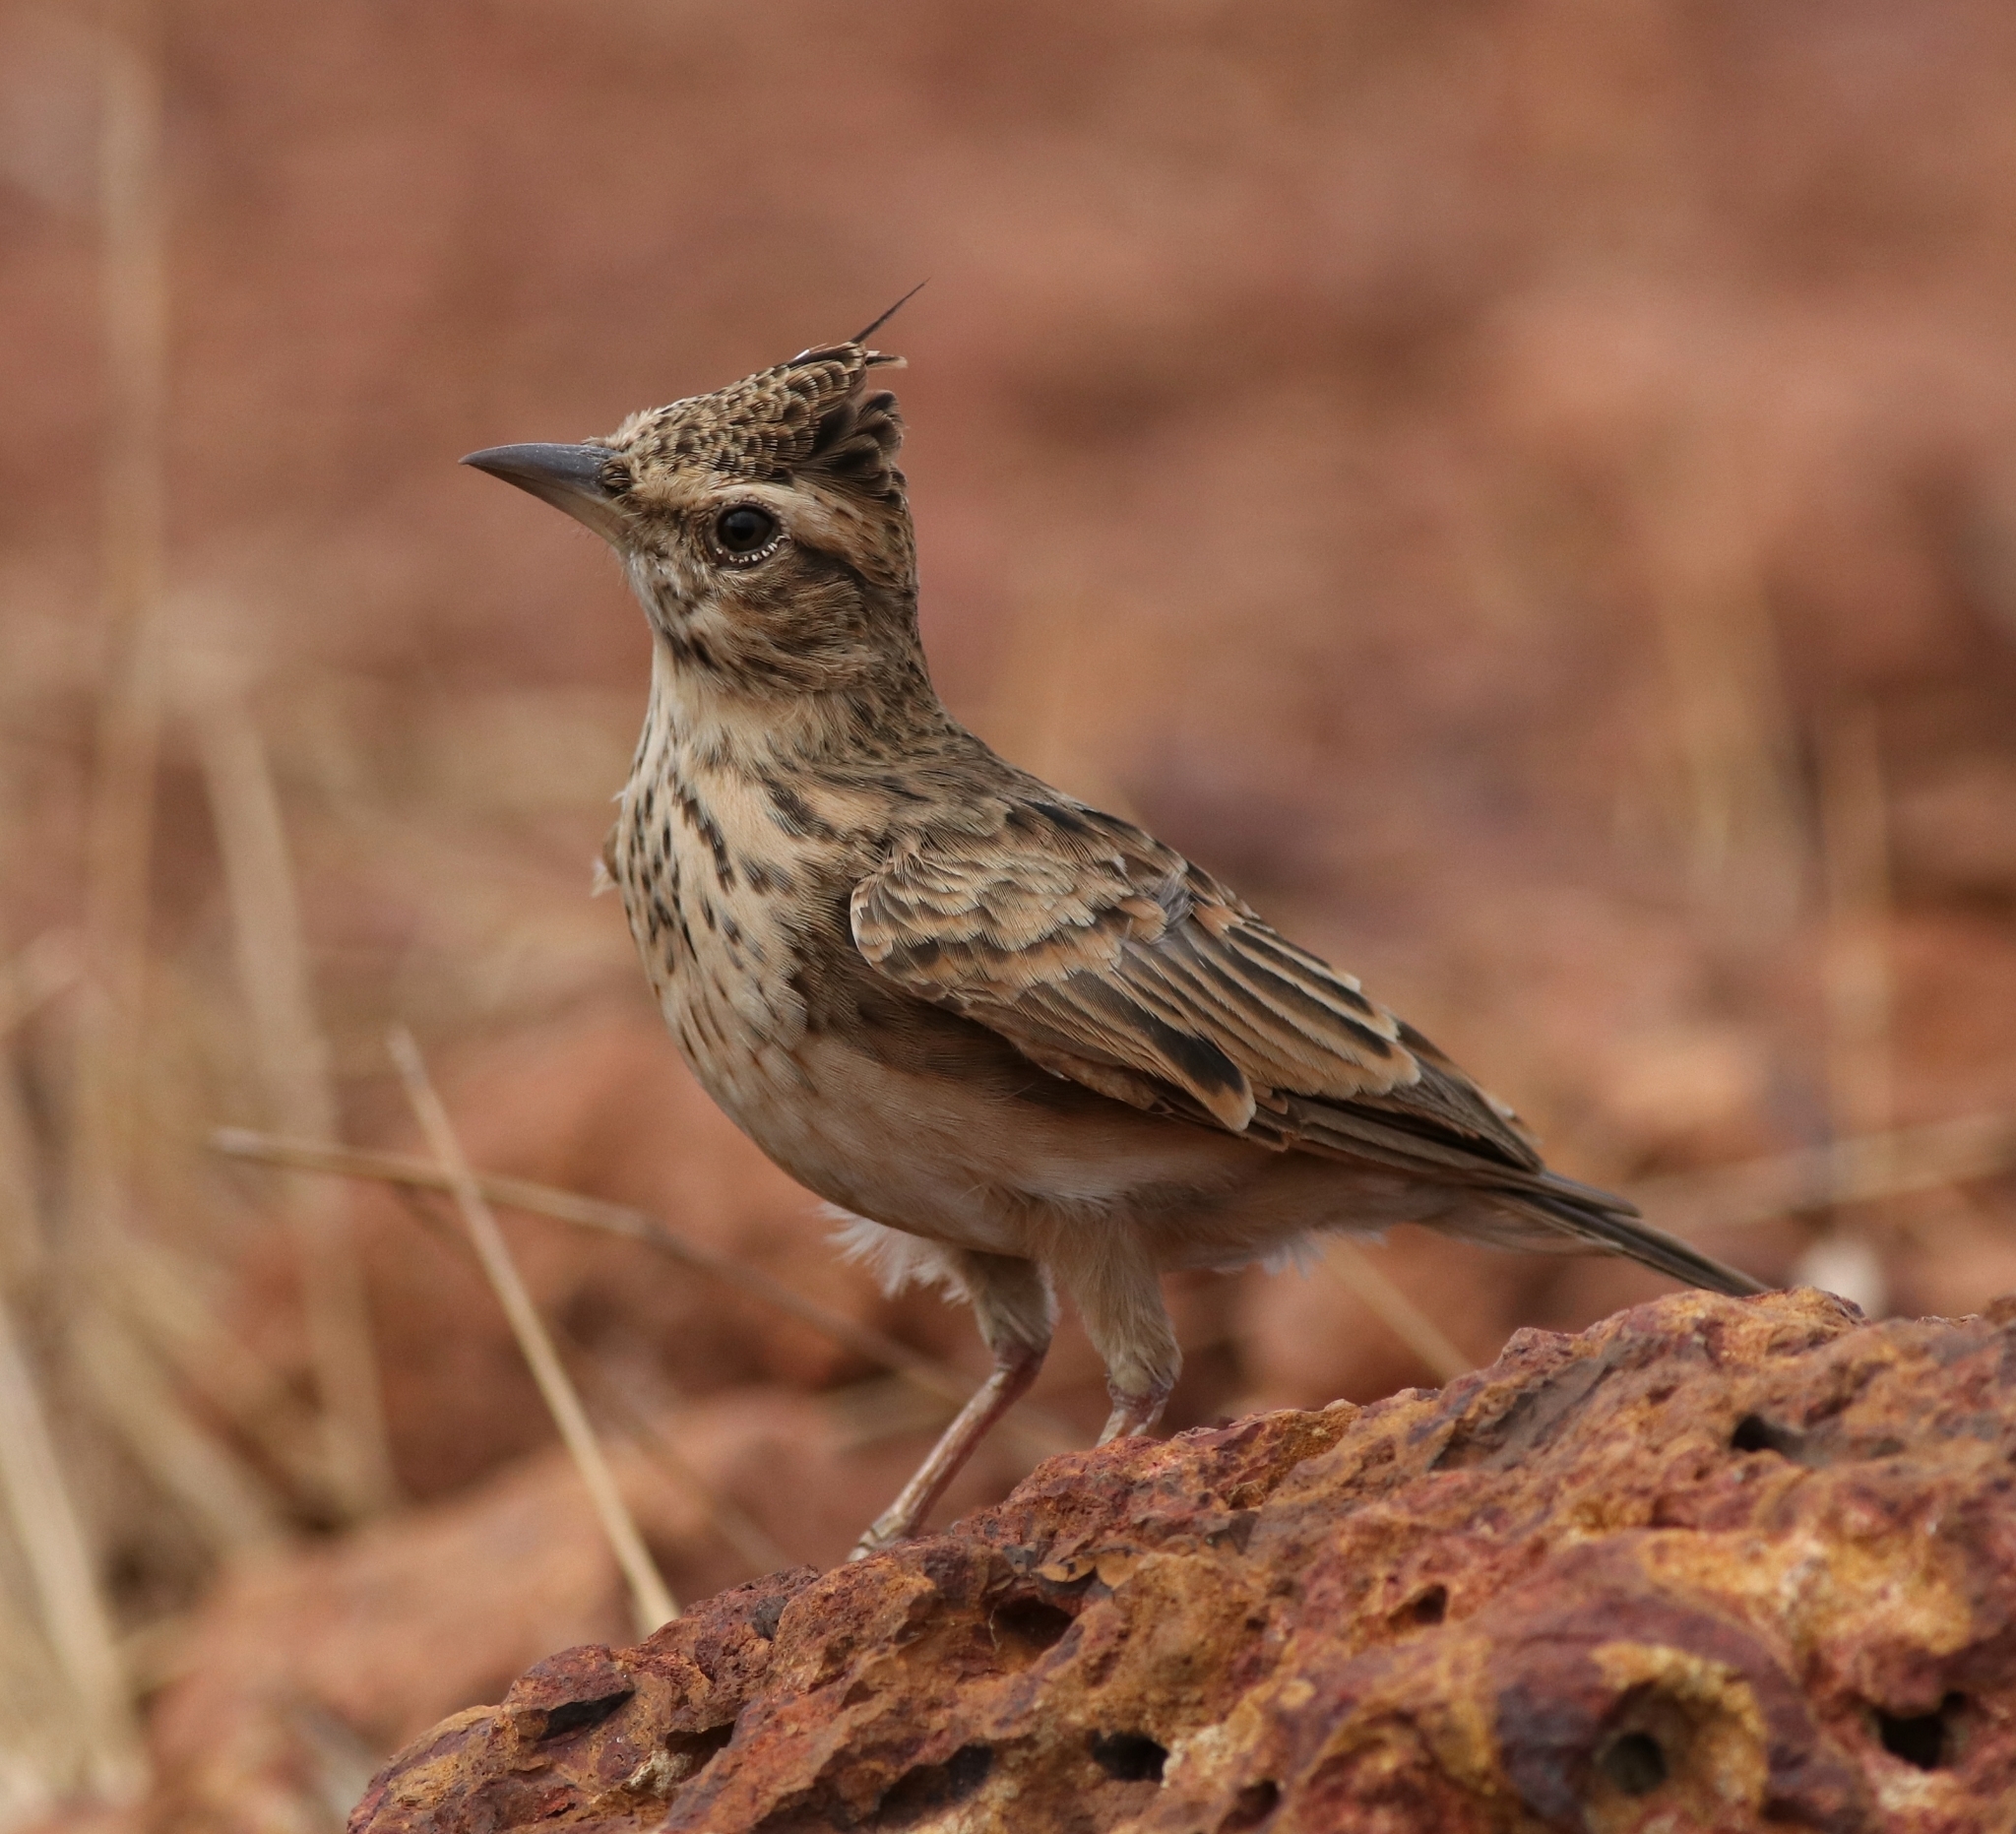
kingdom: Animalia
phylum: Chordata
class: Aves
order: Passeriformes
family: Alaudidae
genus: Galerida
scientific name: Galerida malabarica
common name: Malabar lark
